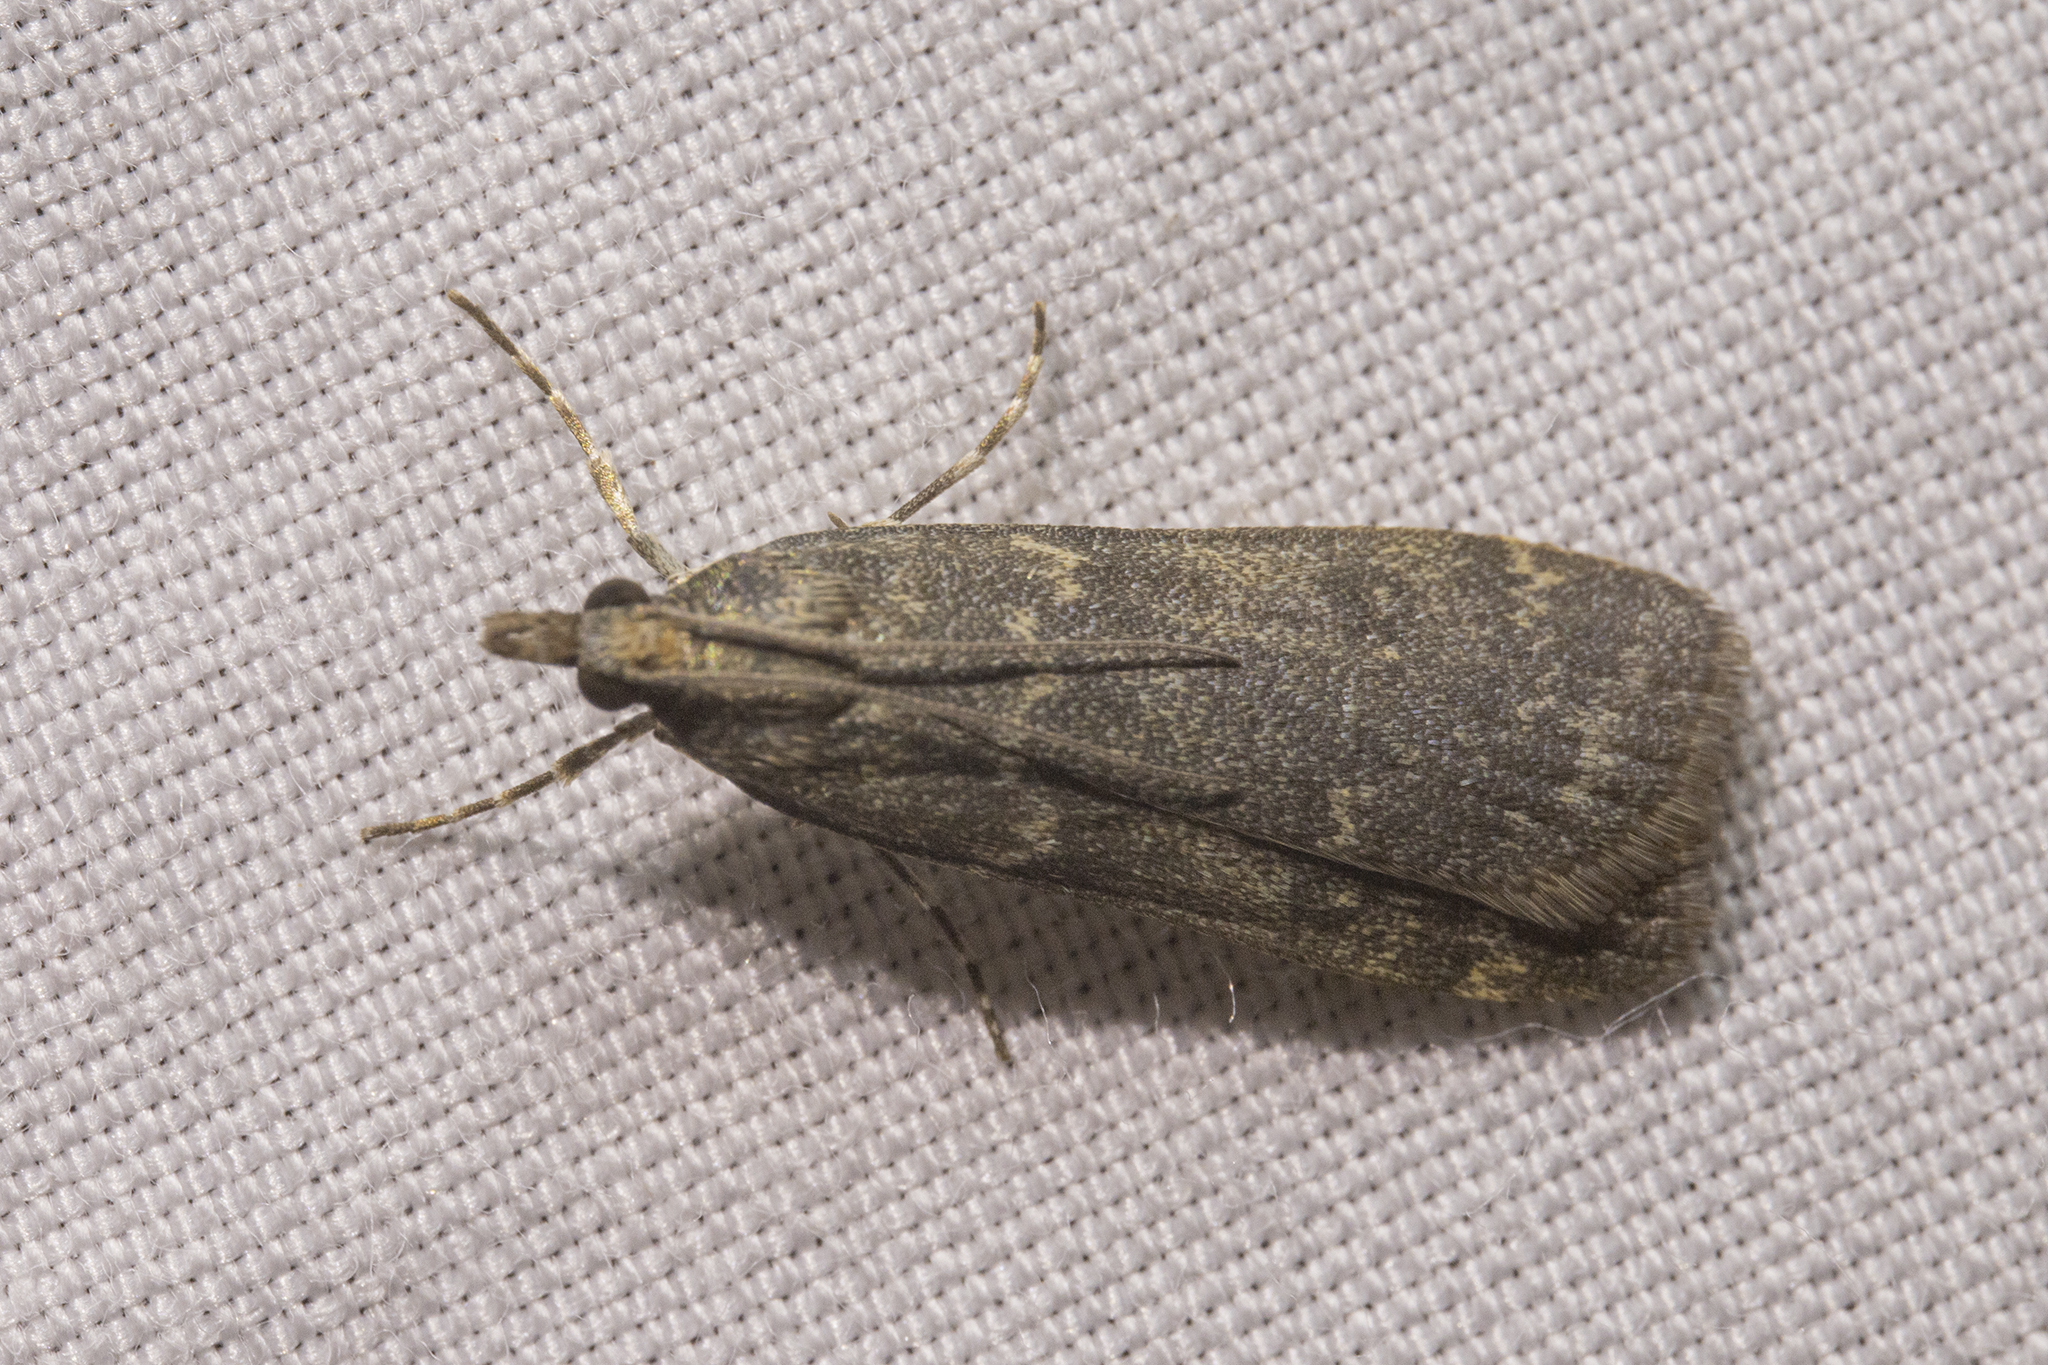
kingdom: Animalia
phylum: Arthropoda
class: Insecta
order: Lepidoptera
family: Crambidae
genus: Eudonia
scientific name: Eudonia cataxesta
